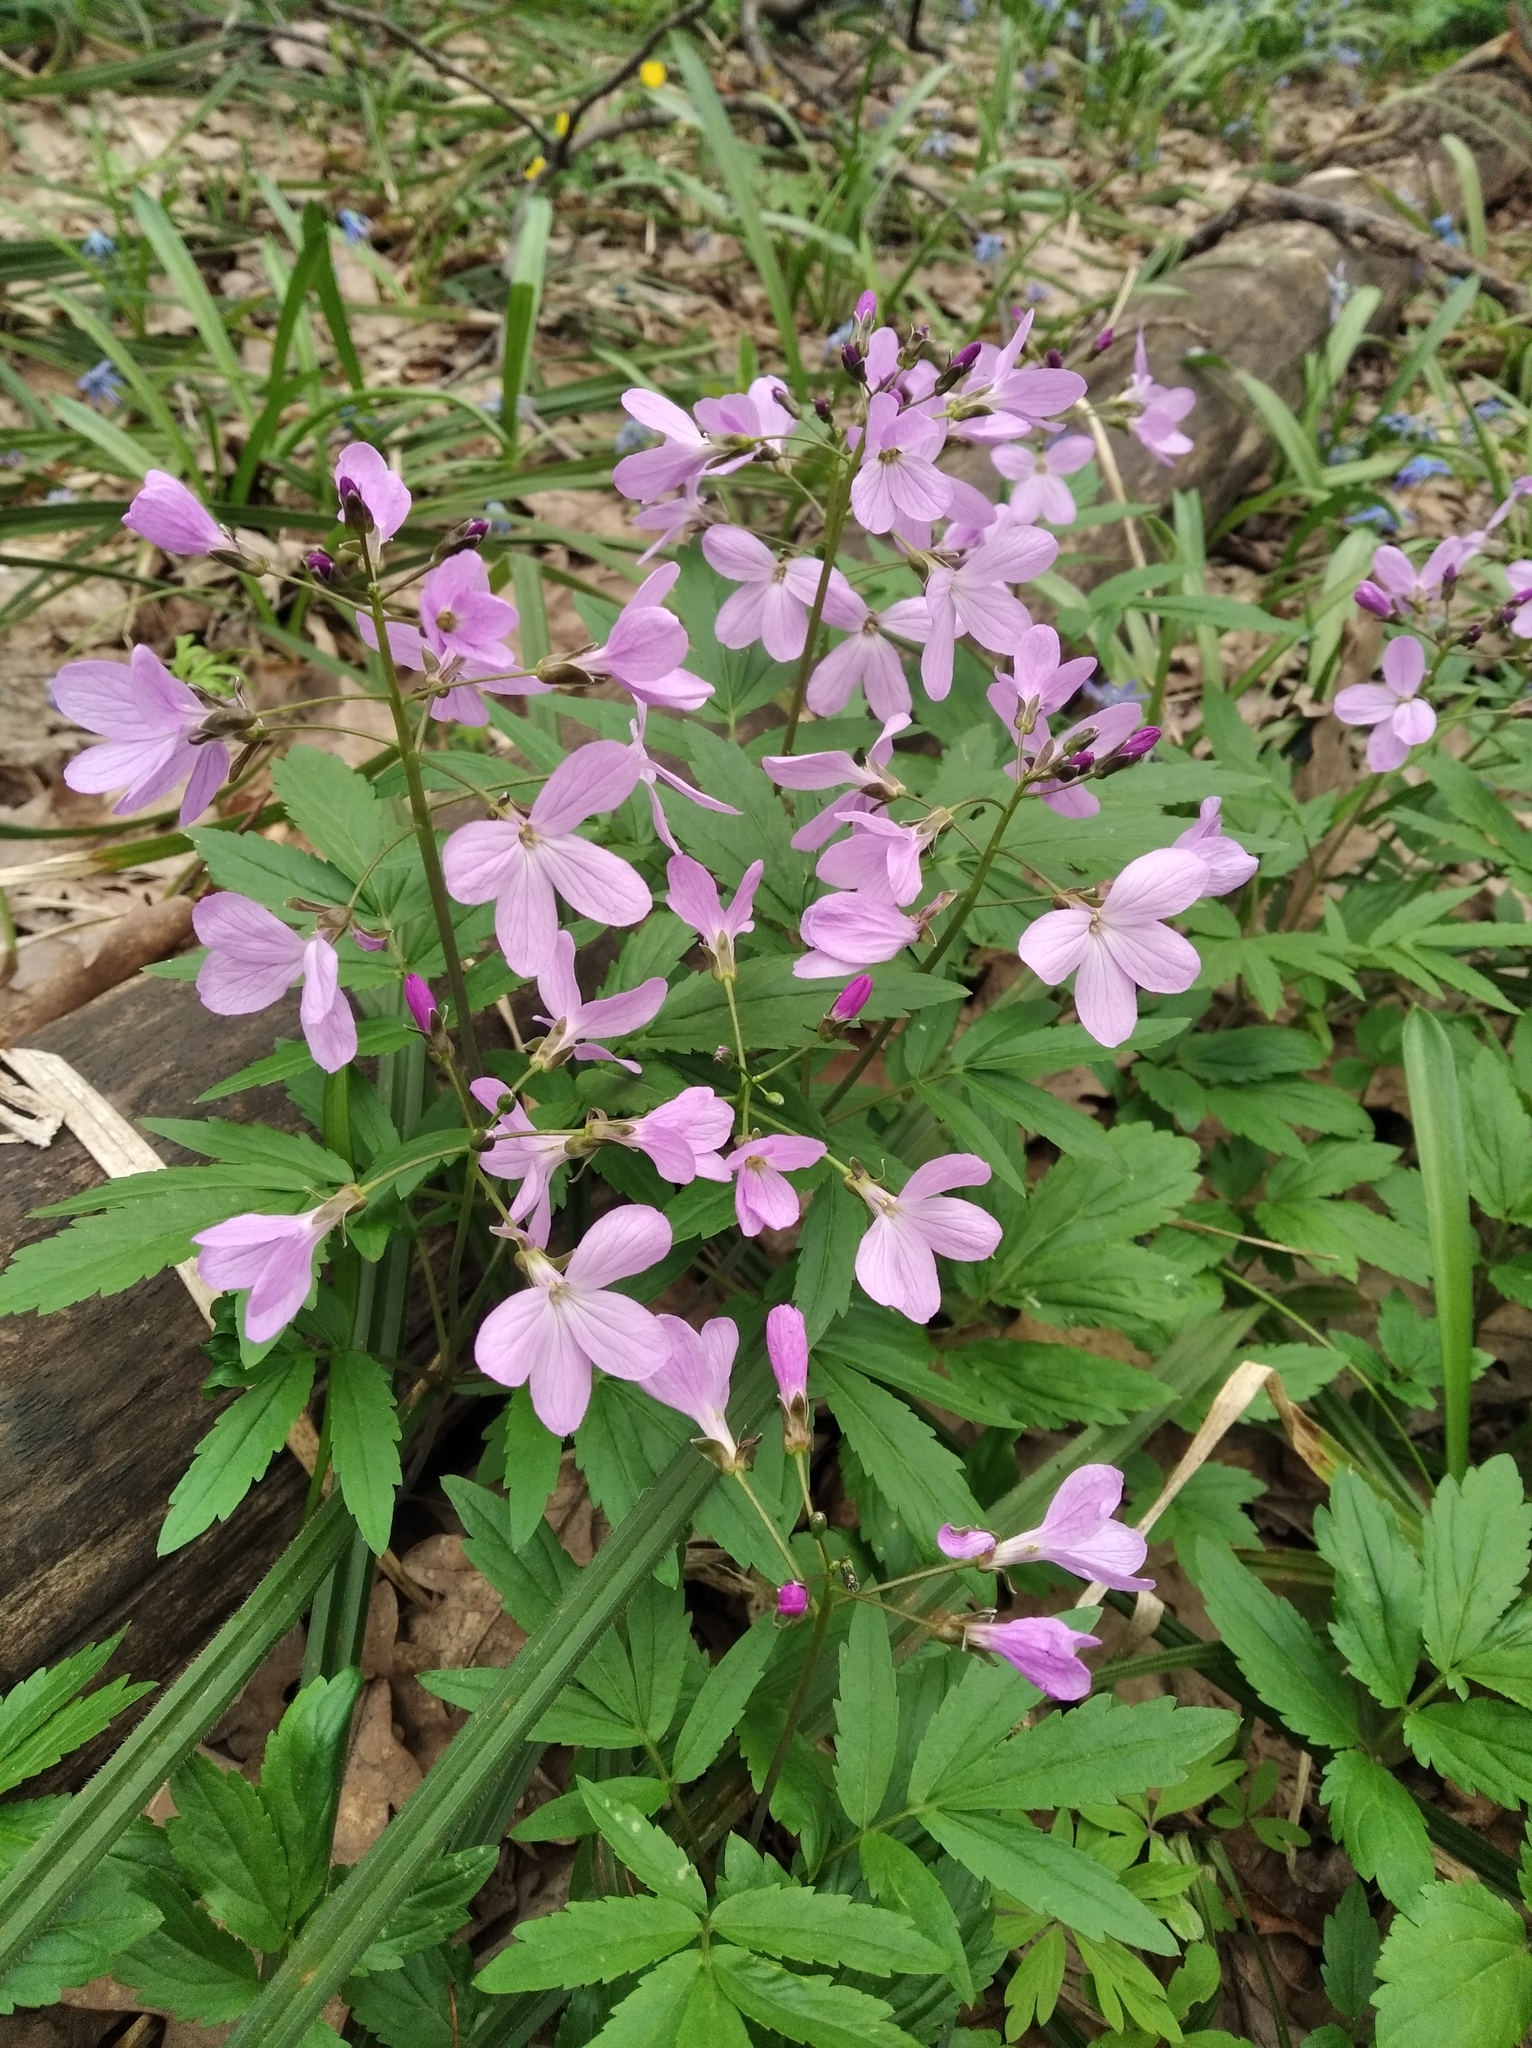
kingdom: Plantae
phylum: Tracheophyta
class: Magnoliopsida
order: Brassicales
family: Brassicaceae
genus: Cardamine
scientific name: Cardamine quinquefolia
